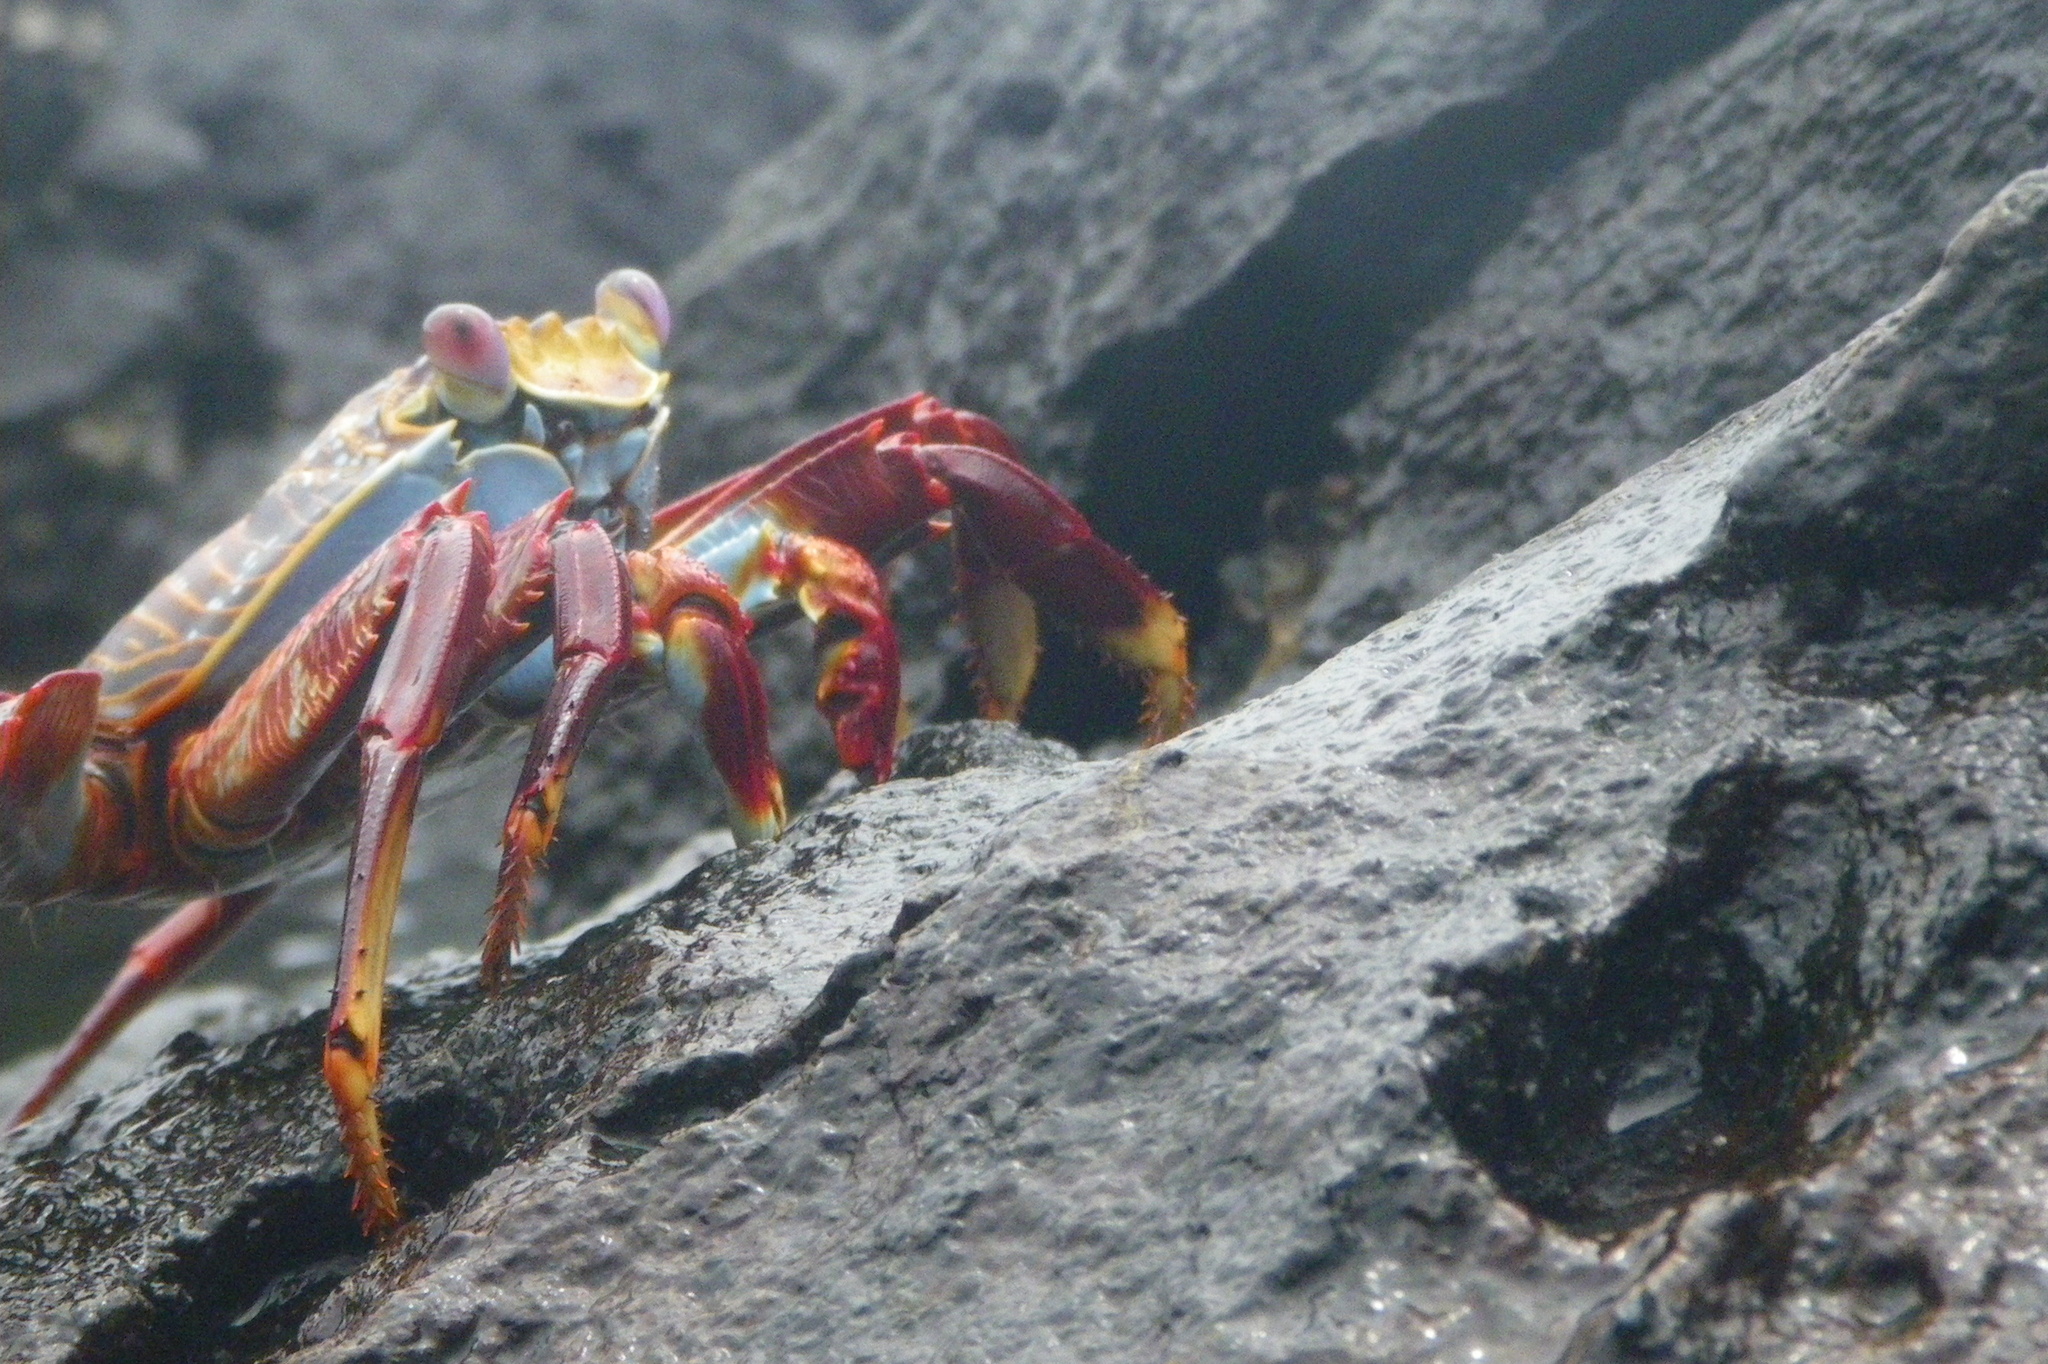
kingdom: Animalia
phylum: Arthropoda
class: Malacostraca
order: Decapoda
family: Grapsidae
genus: Grapsus
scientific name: Grapsus grapsus
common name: Sally lightfoot
